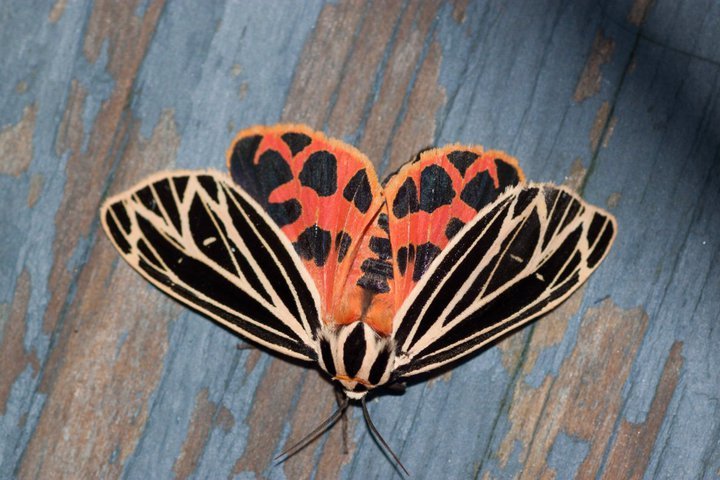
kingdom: Animalia
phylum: Arthropoda
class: Insecta
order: Lepidoptera
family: Erebidae
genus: Grammia
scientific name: Grammia virgo
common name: Virgin tiger moth
